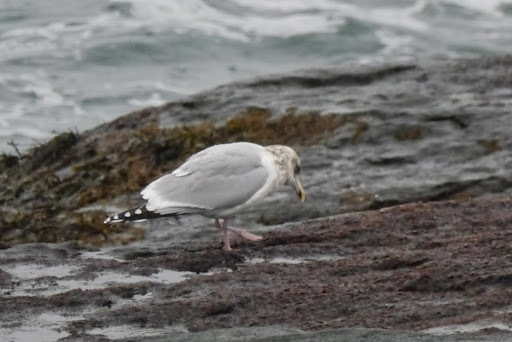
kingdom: Animalia
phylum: Chordata
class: Aves
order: Charadriiformes
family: Laridae
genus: Larus
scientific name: Larus argentatus
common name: Herring gull
